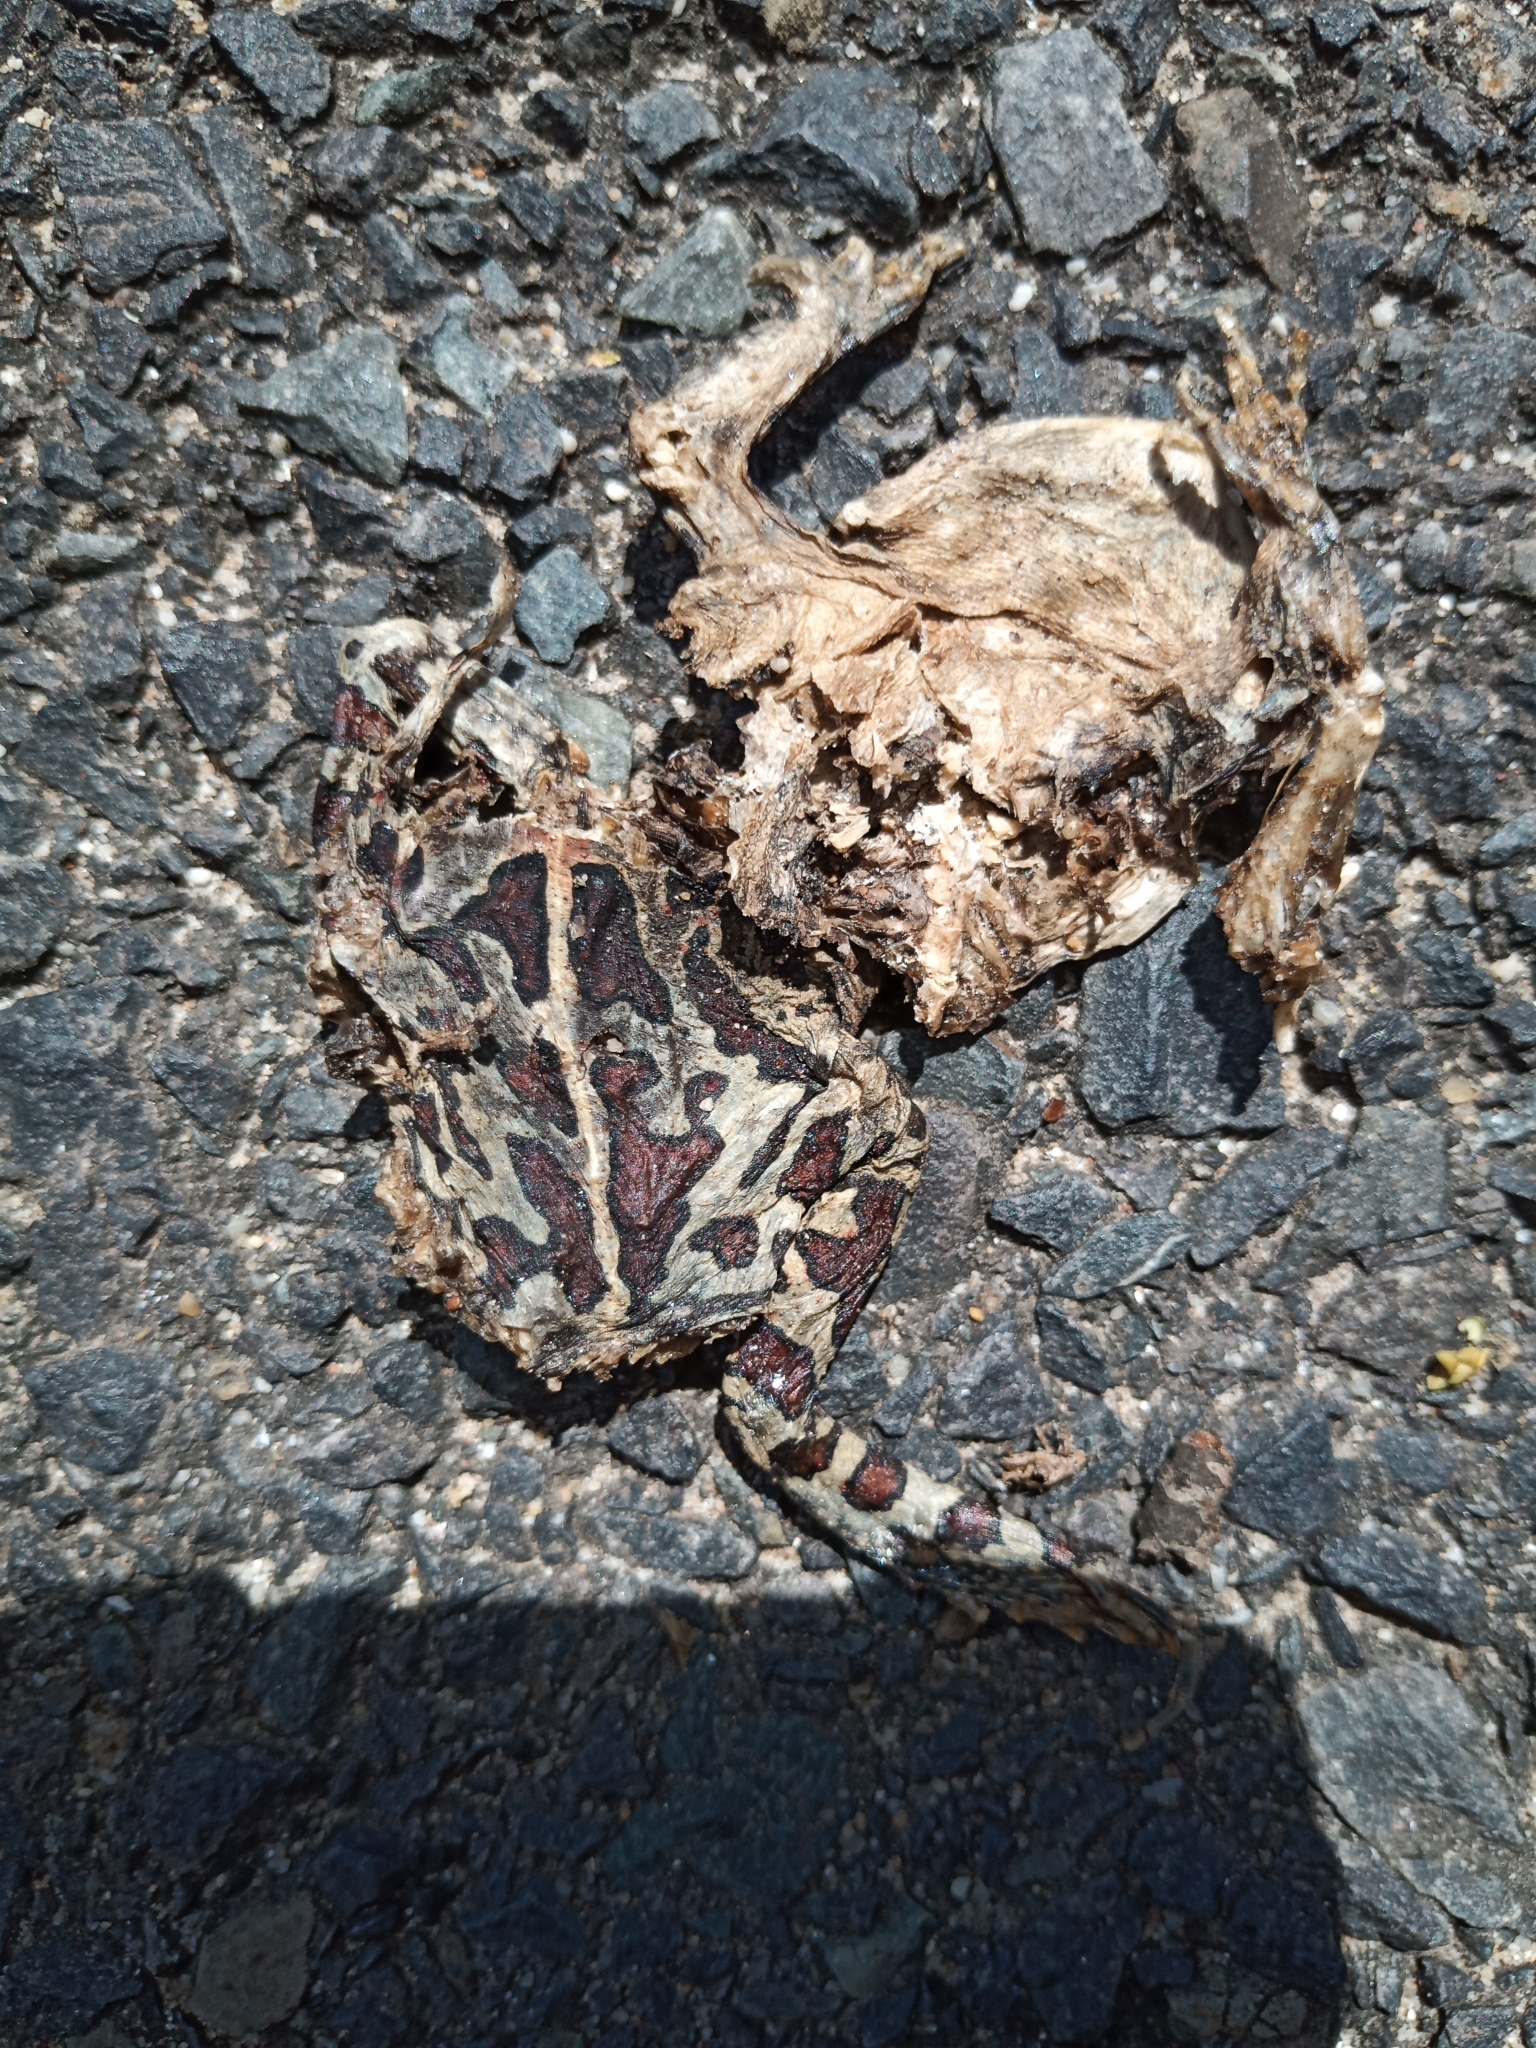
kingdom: Animalia
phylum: Chordata
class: Amphibia
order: Anura
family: Bufonidae
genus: Sclerophrys
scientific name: Sclerophrys pantherina
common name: Panther toad
